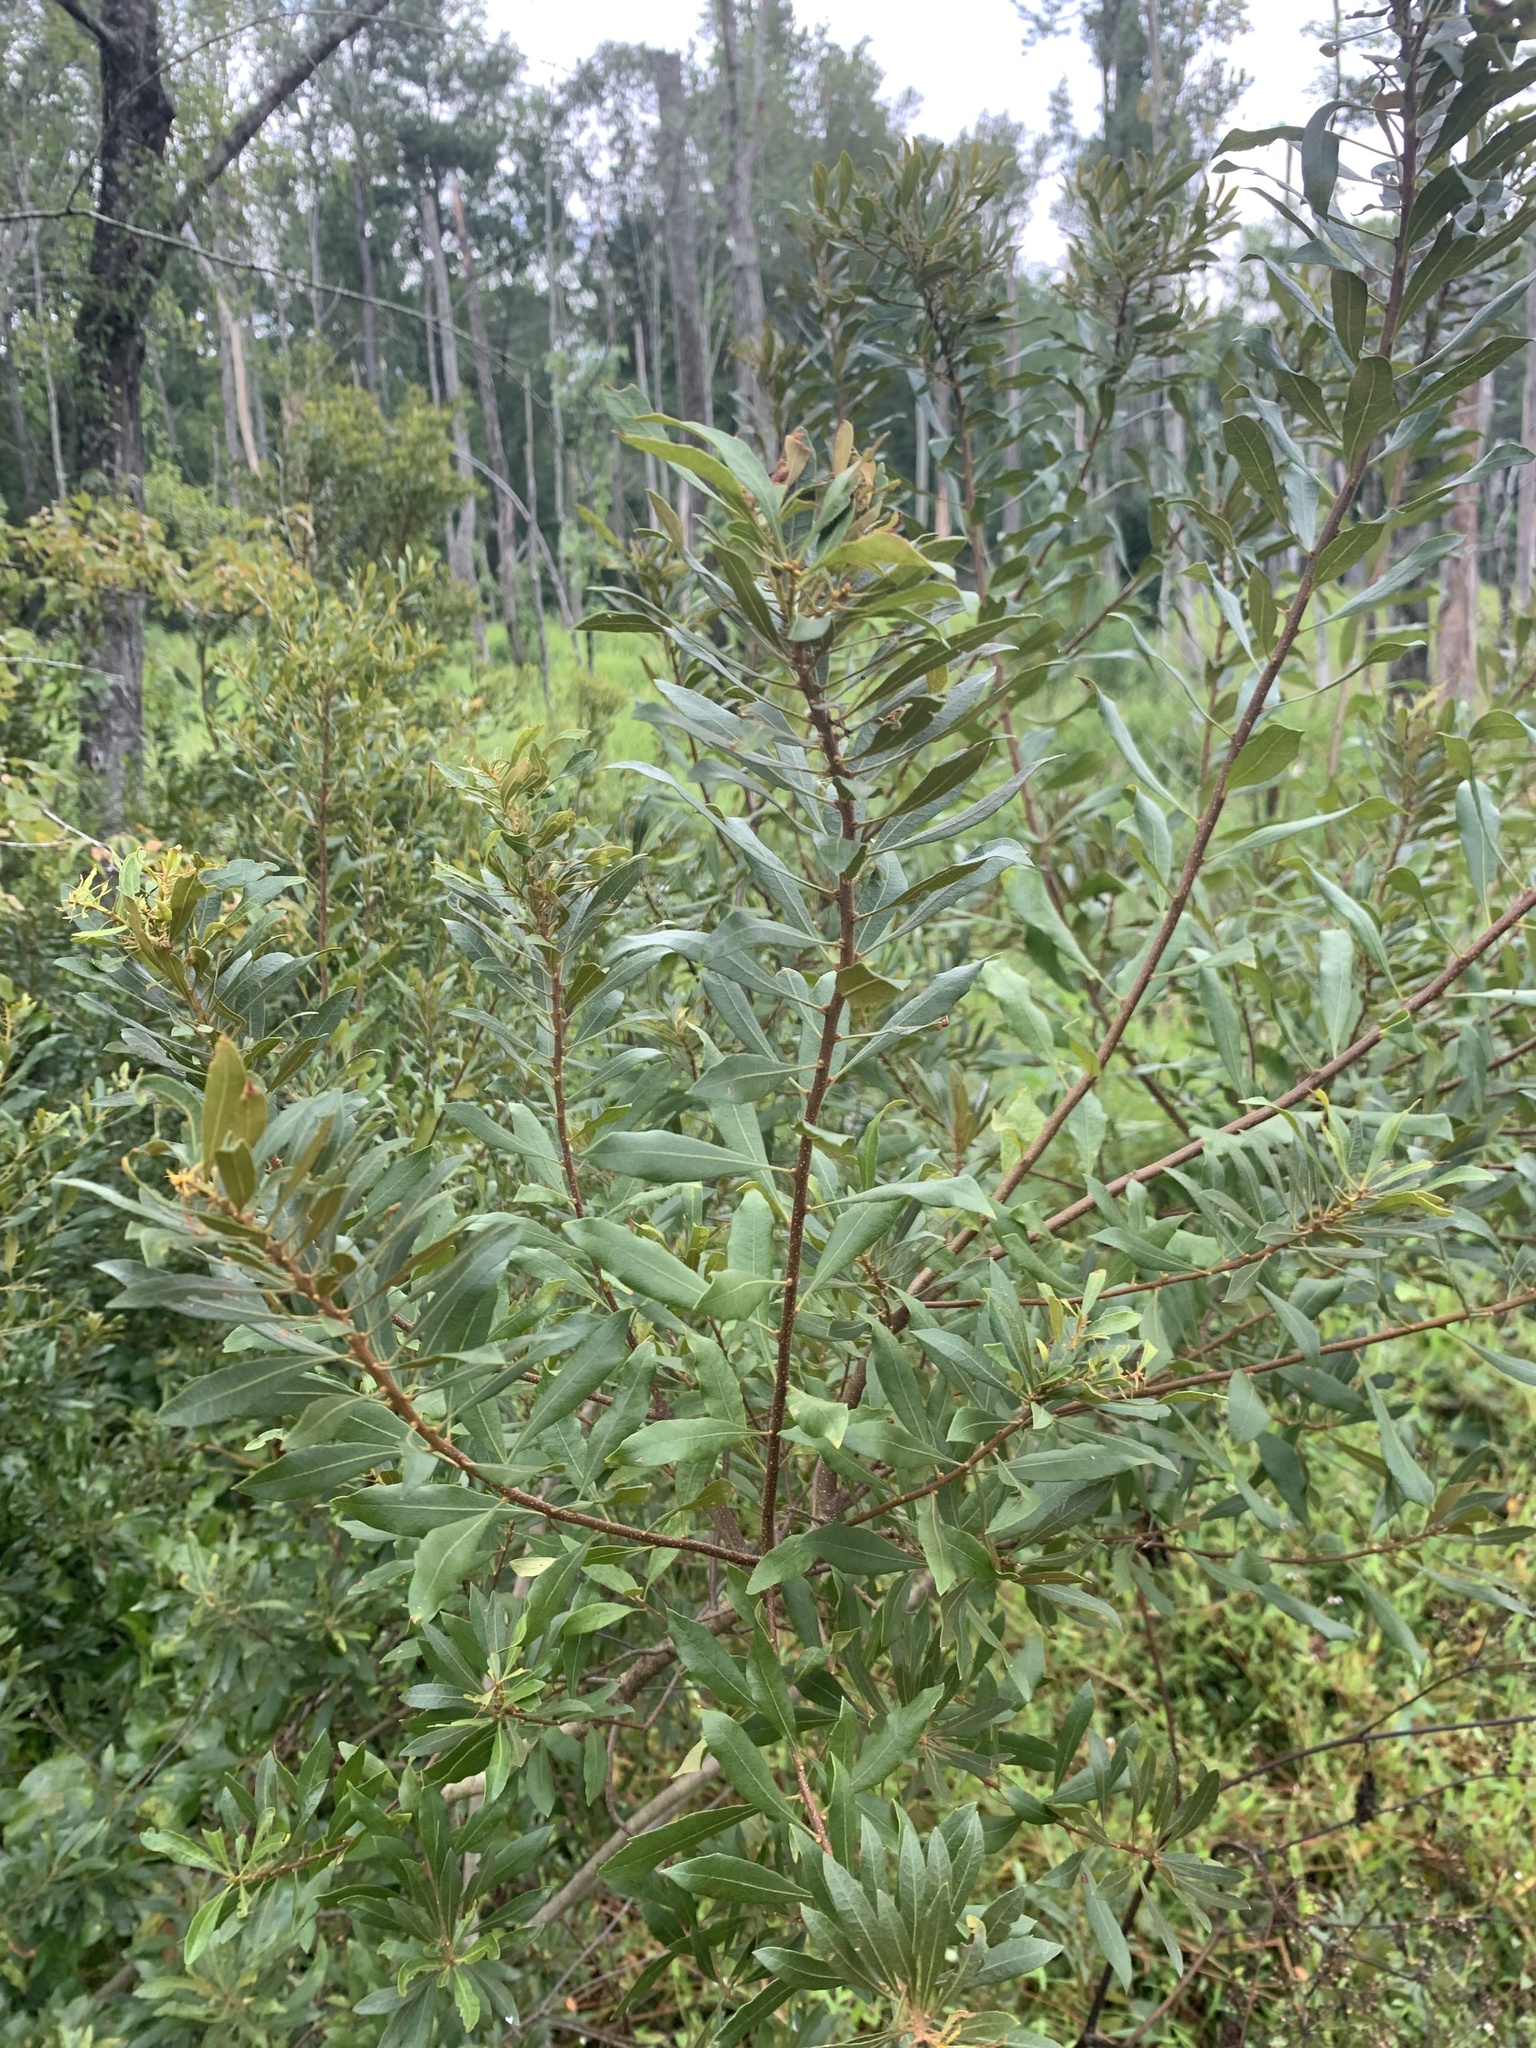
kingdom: Plantae
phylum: Tracheophyta
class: Magnoliopsida
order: Fagales
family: Myricaceae
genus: Morella
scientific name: Morella cerifera
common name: Wax myrtle
